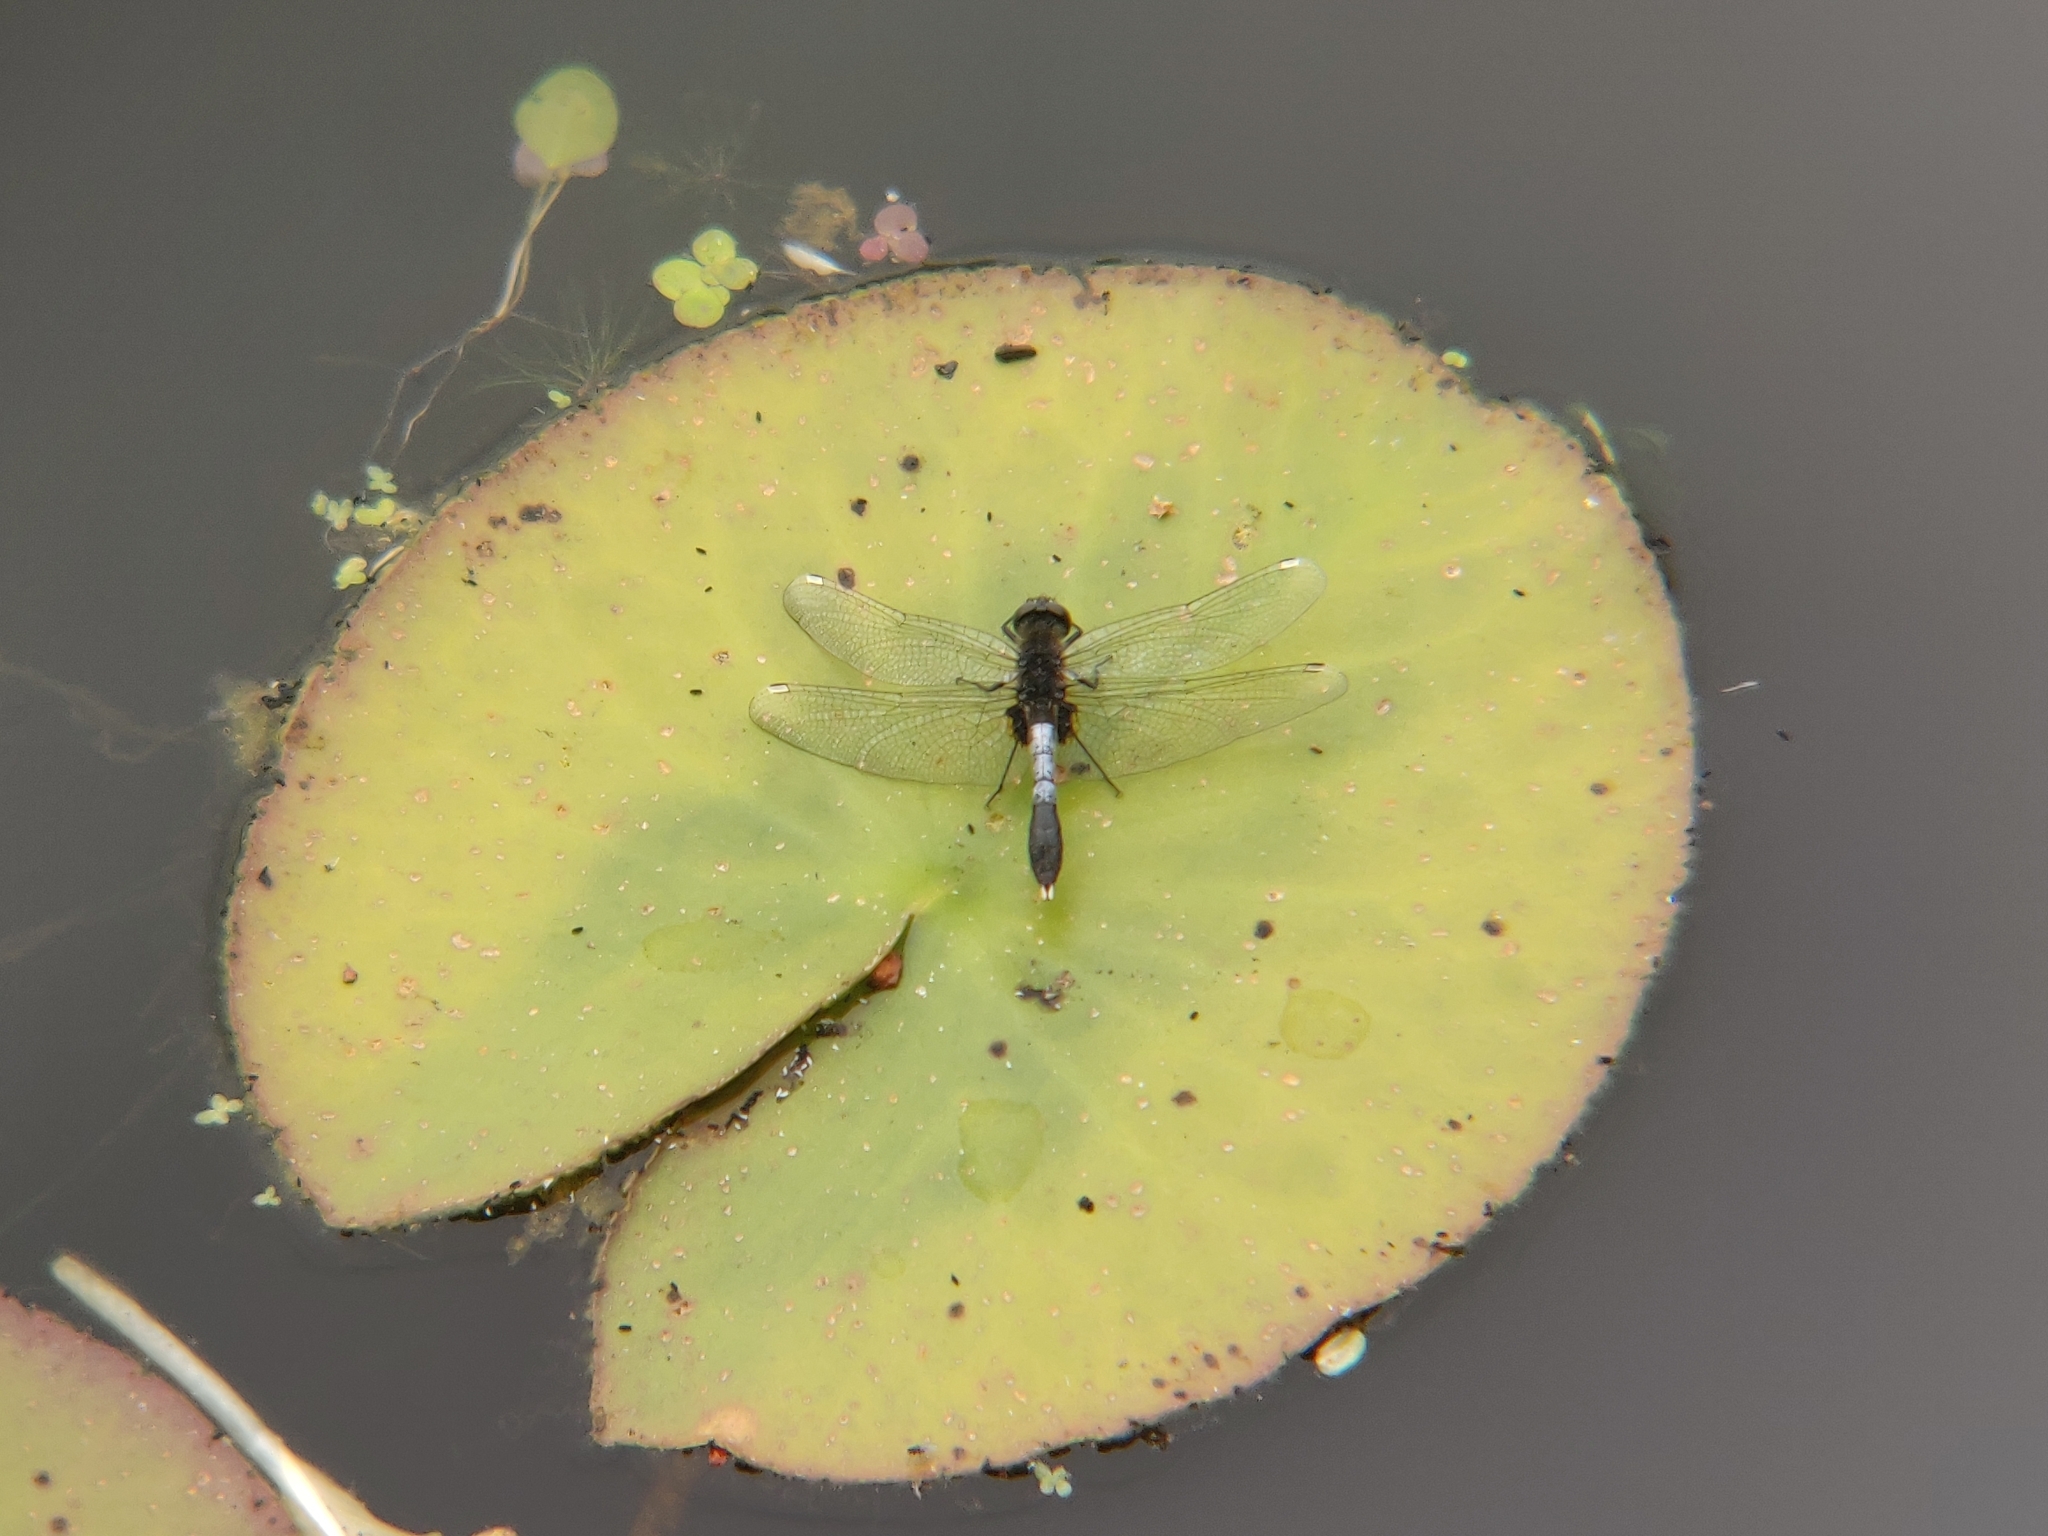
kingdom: Animalia
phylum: Arthropoda
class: Insecta
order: Odonata
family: Libellulidae
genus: Leucorrhinia
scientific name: Leucorrhinia caudalis
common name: Lilypad whiteface
